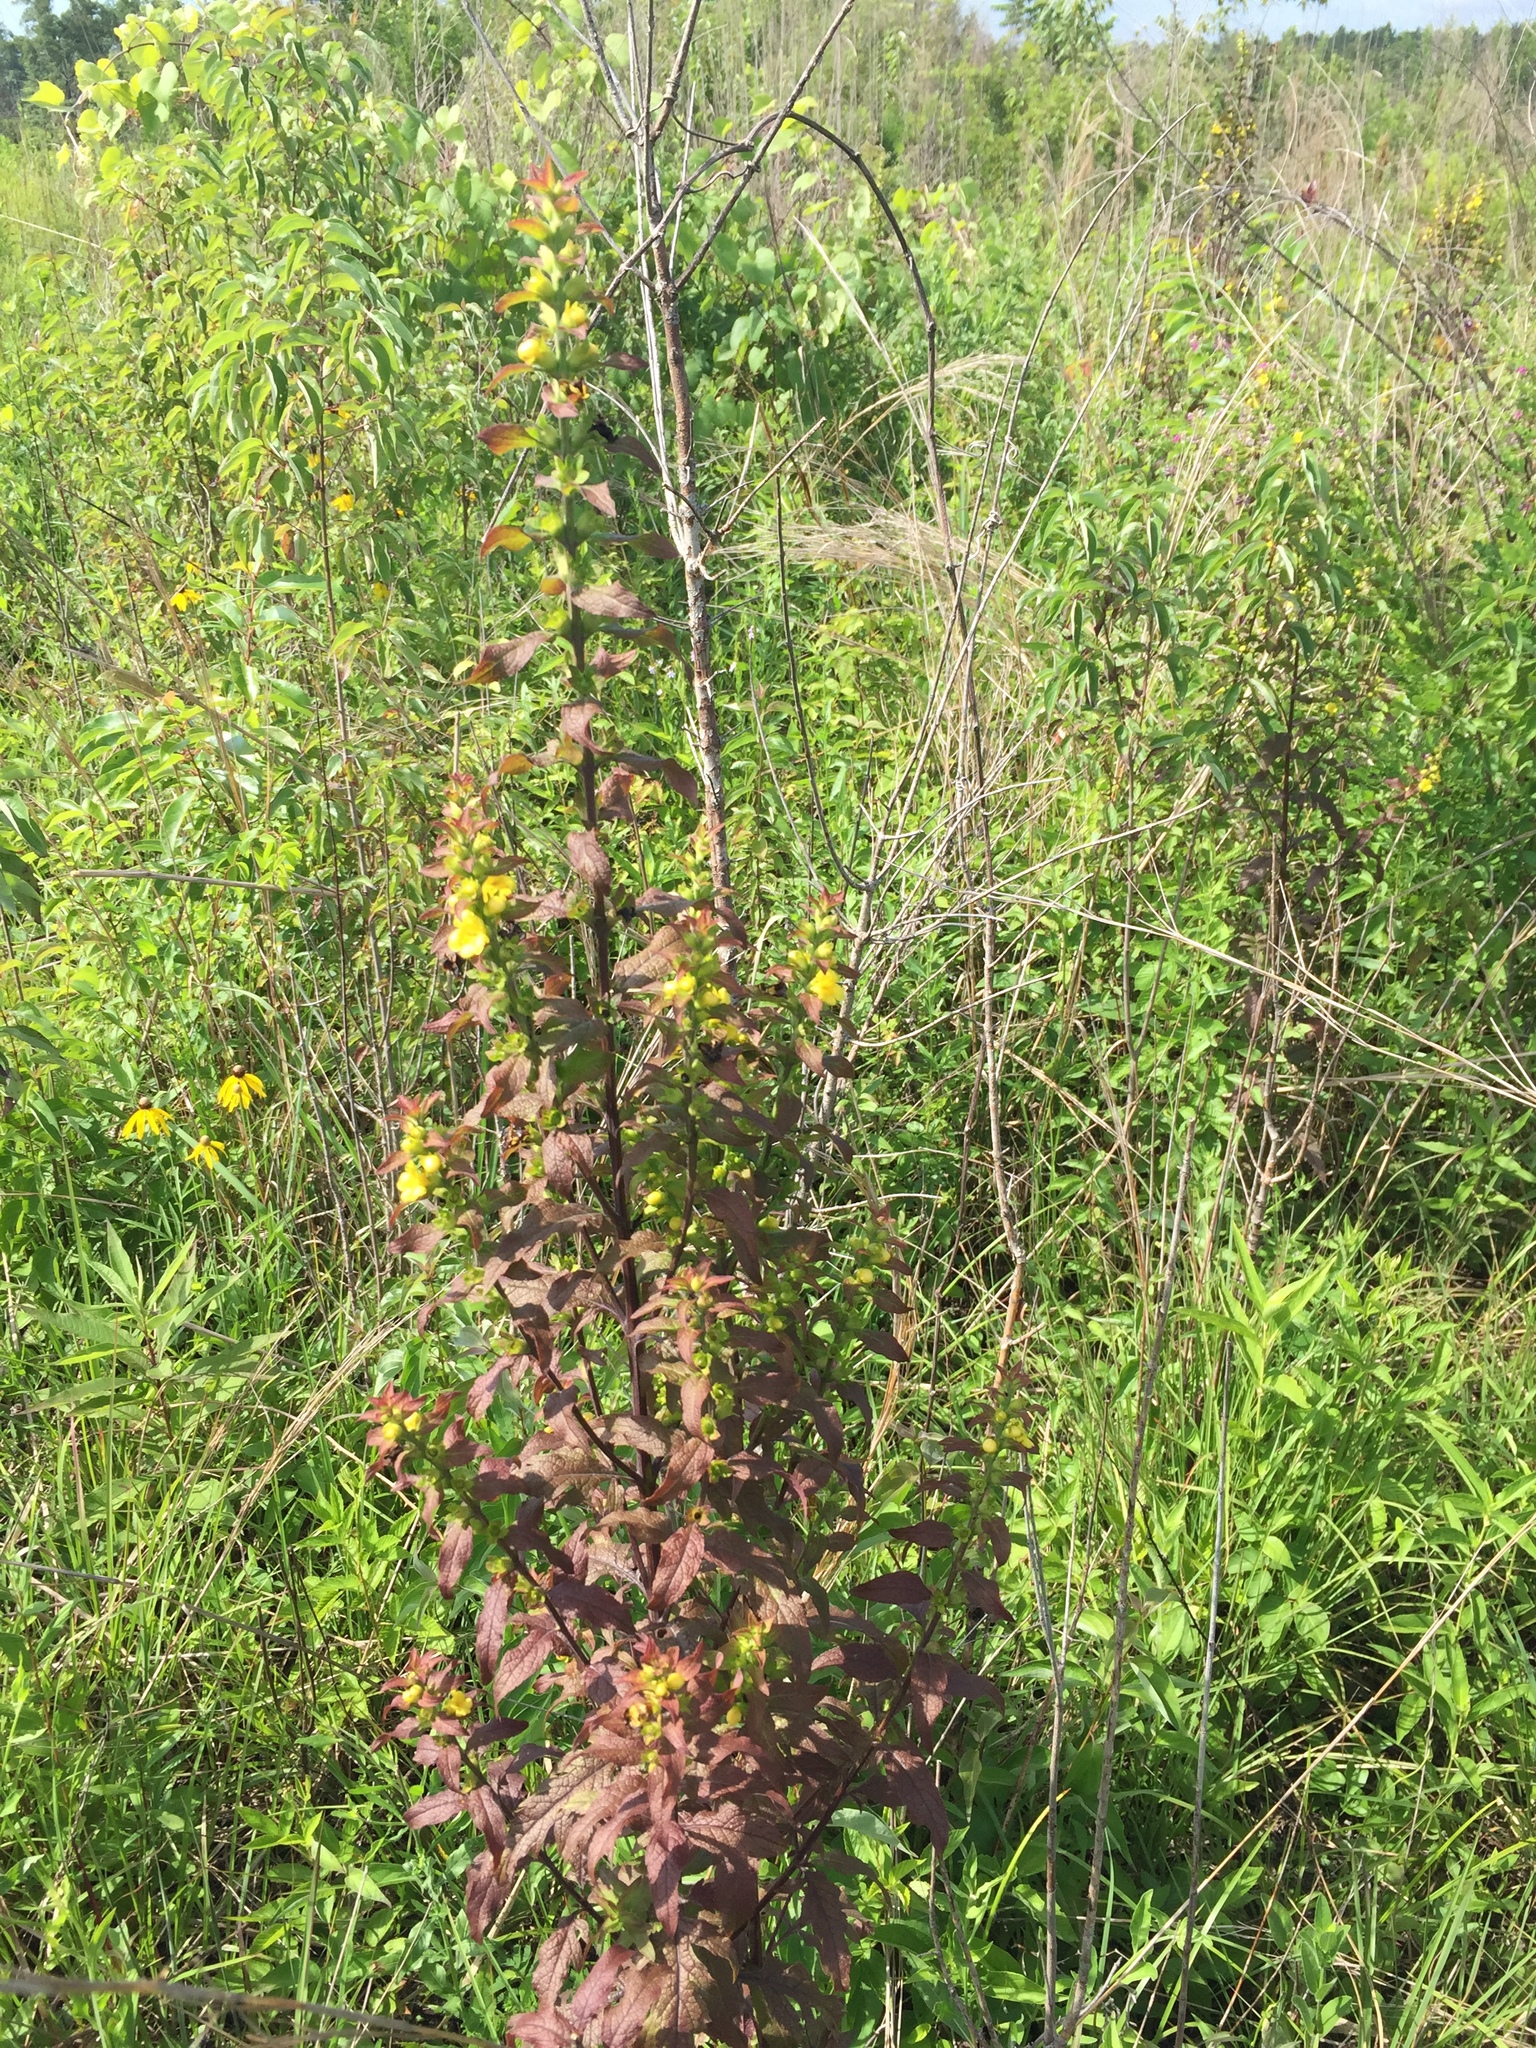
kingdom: Plantae
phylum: Tracheophyta
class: Magnoliopsida
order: Lamiales
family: Orobanchaceae
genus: Dasistoma
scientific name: Dasistoma macrophyllum
